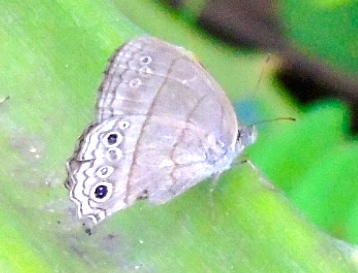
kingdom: Animalia
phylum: Arthropoda
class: Insecta
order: Lepidoptera
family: Nymphalidae
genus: Hermeuptychia
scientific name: Hermeuptychia hermes
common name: Hermes satyr
